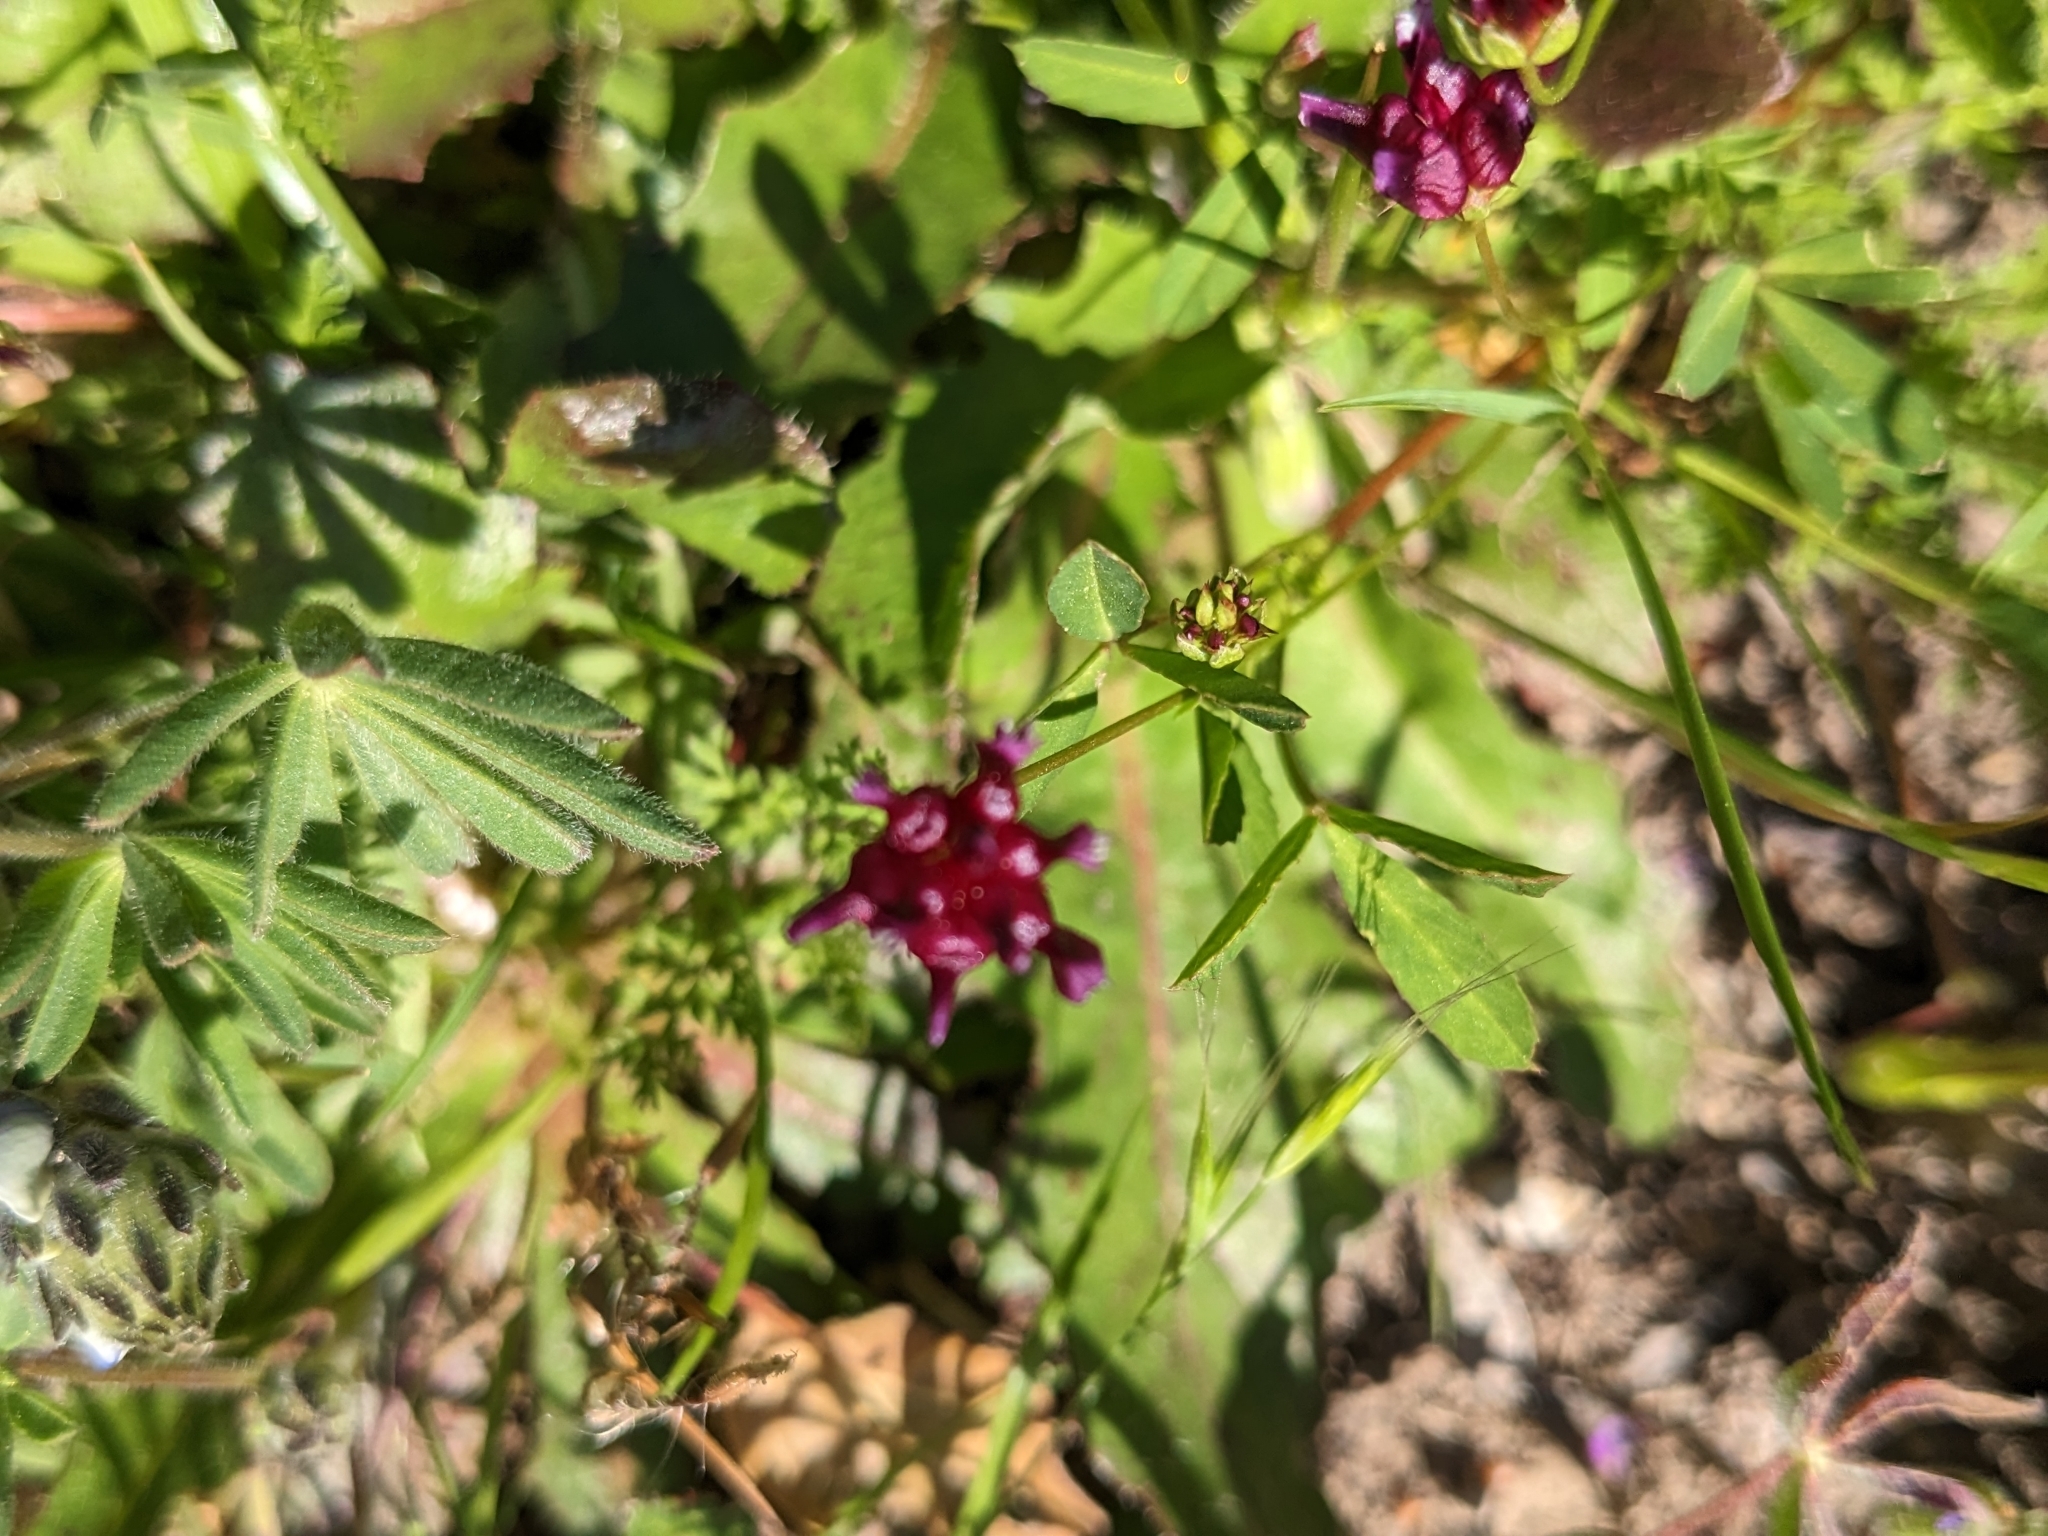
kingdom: Plantae
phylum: Tracheophyta
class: Magnoliopsida
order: Fabales
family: Fabaceae
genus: Trifolium
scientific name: Trifolium depauperatum
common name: Poverty clover
